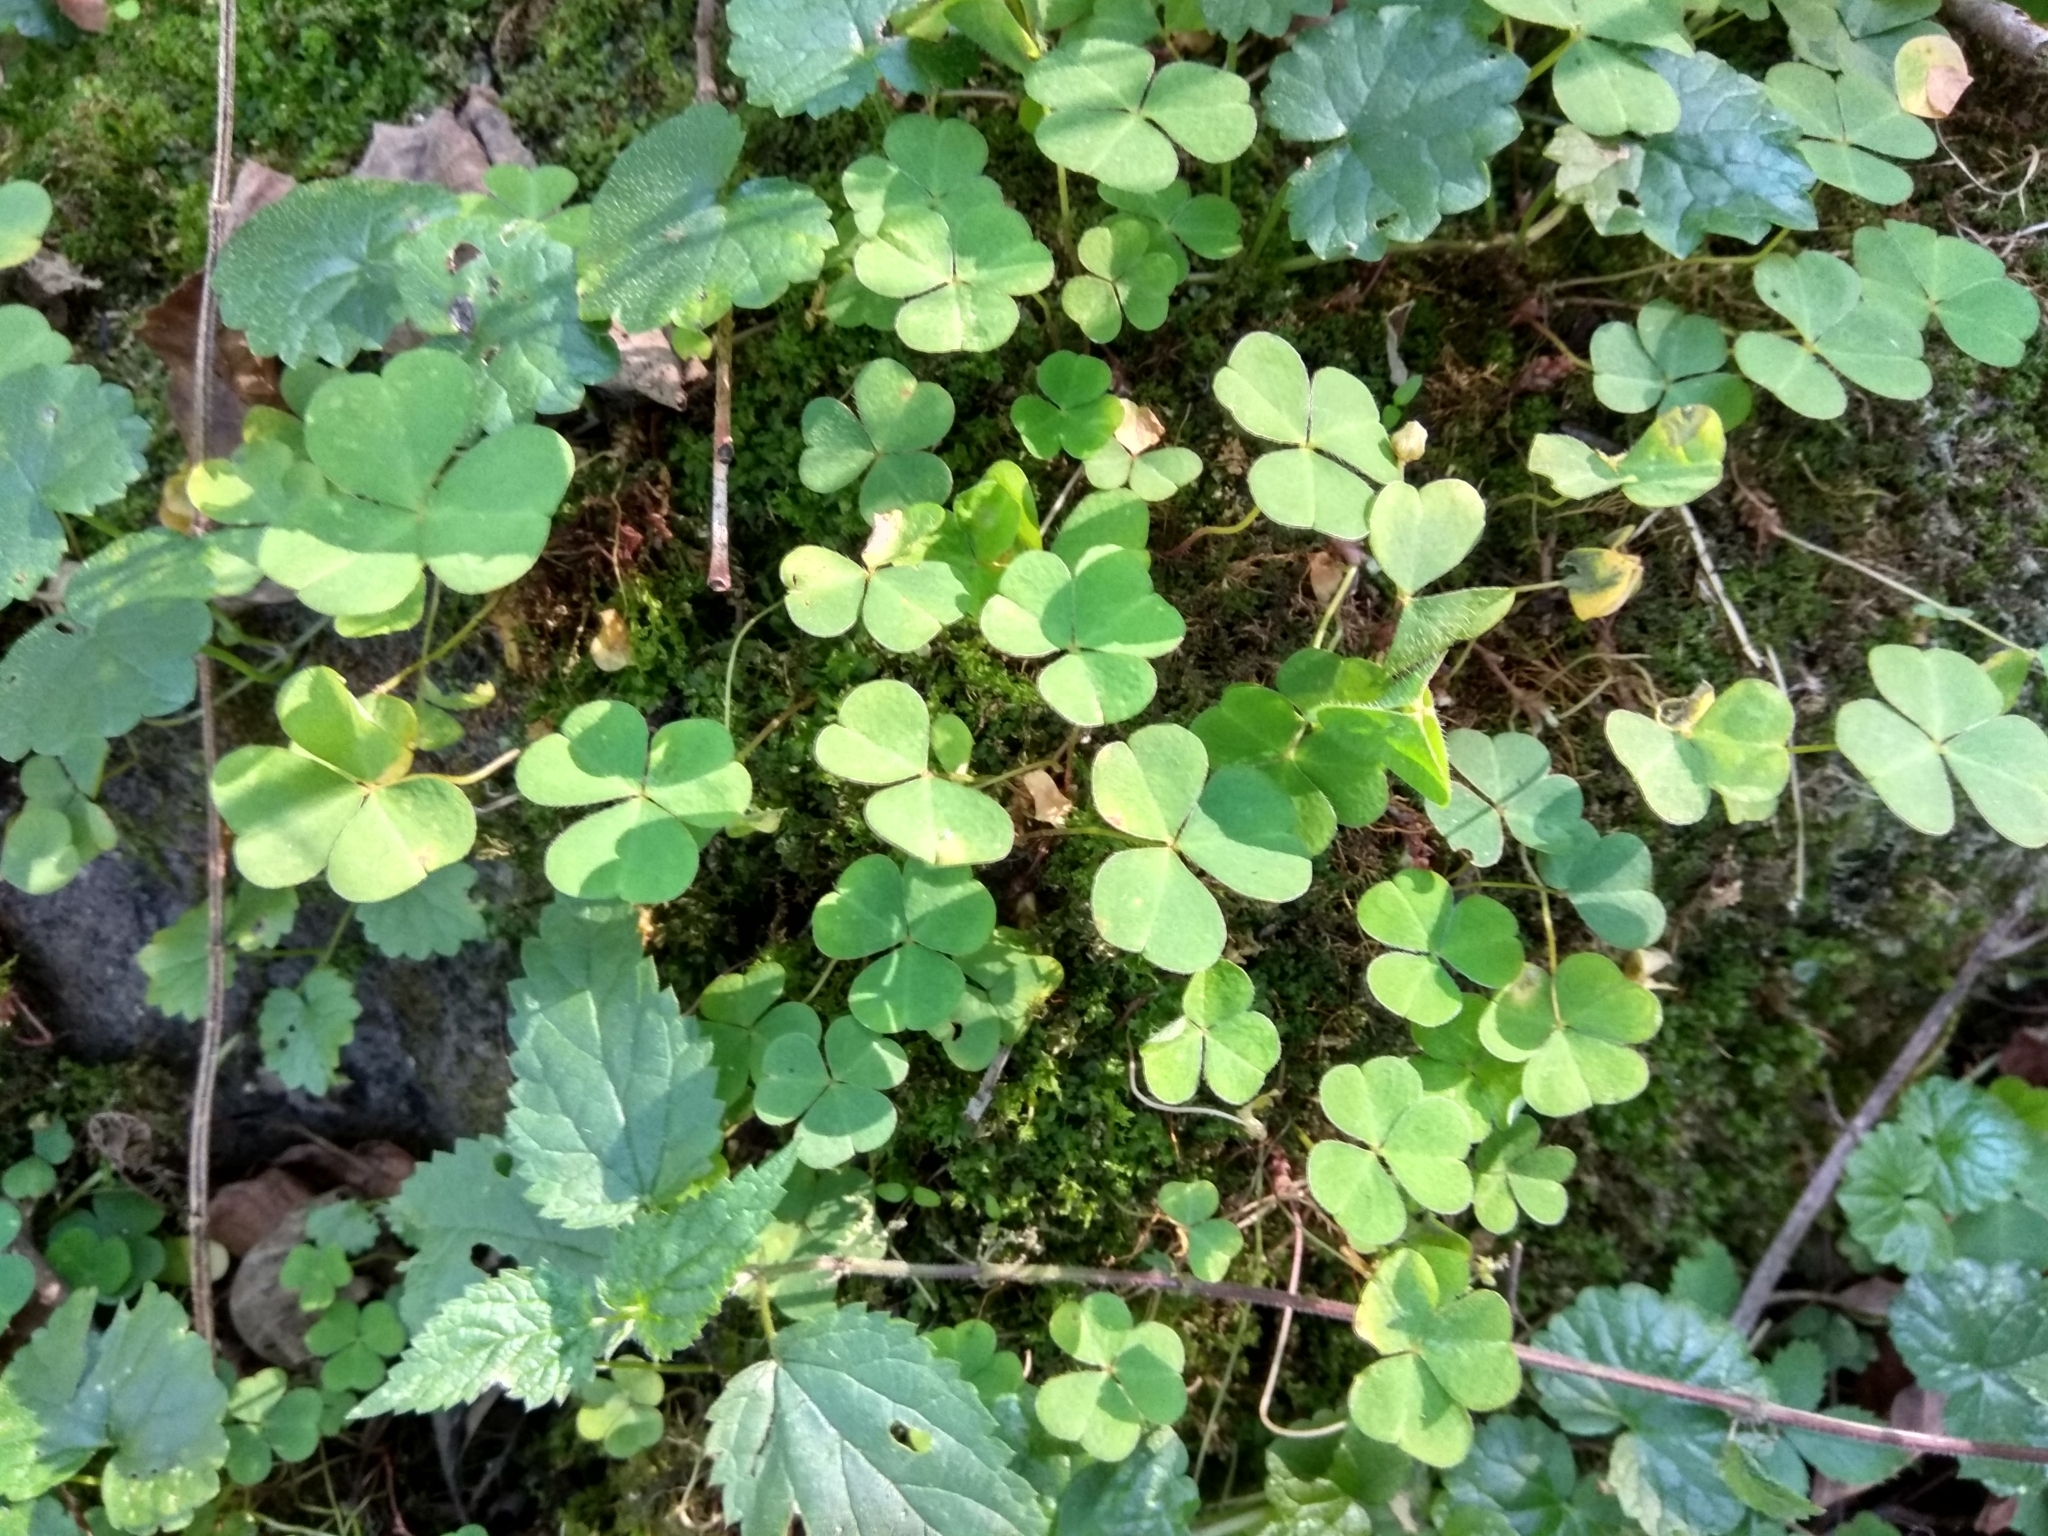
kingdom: Plantae
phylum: Tracheophyta
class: Magnoliopsida
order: Oxalidales
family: Oxalidaceae
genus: Oxalis
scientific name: Oxalis acetosella
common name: Wood-sorrel
